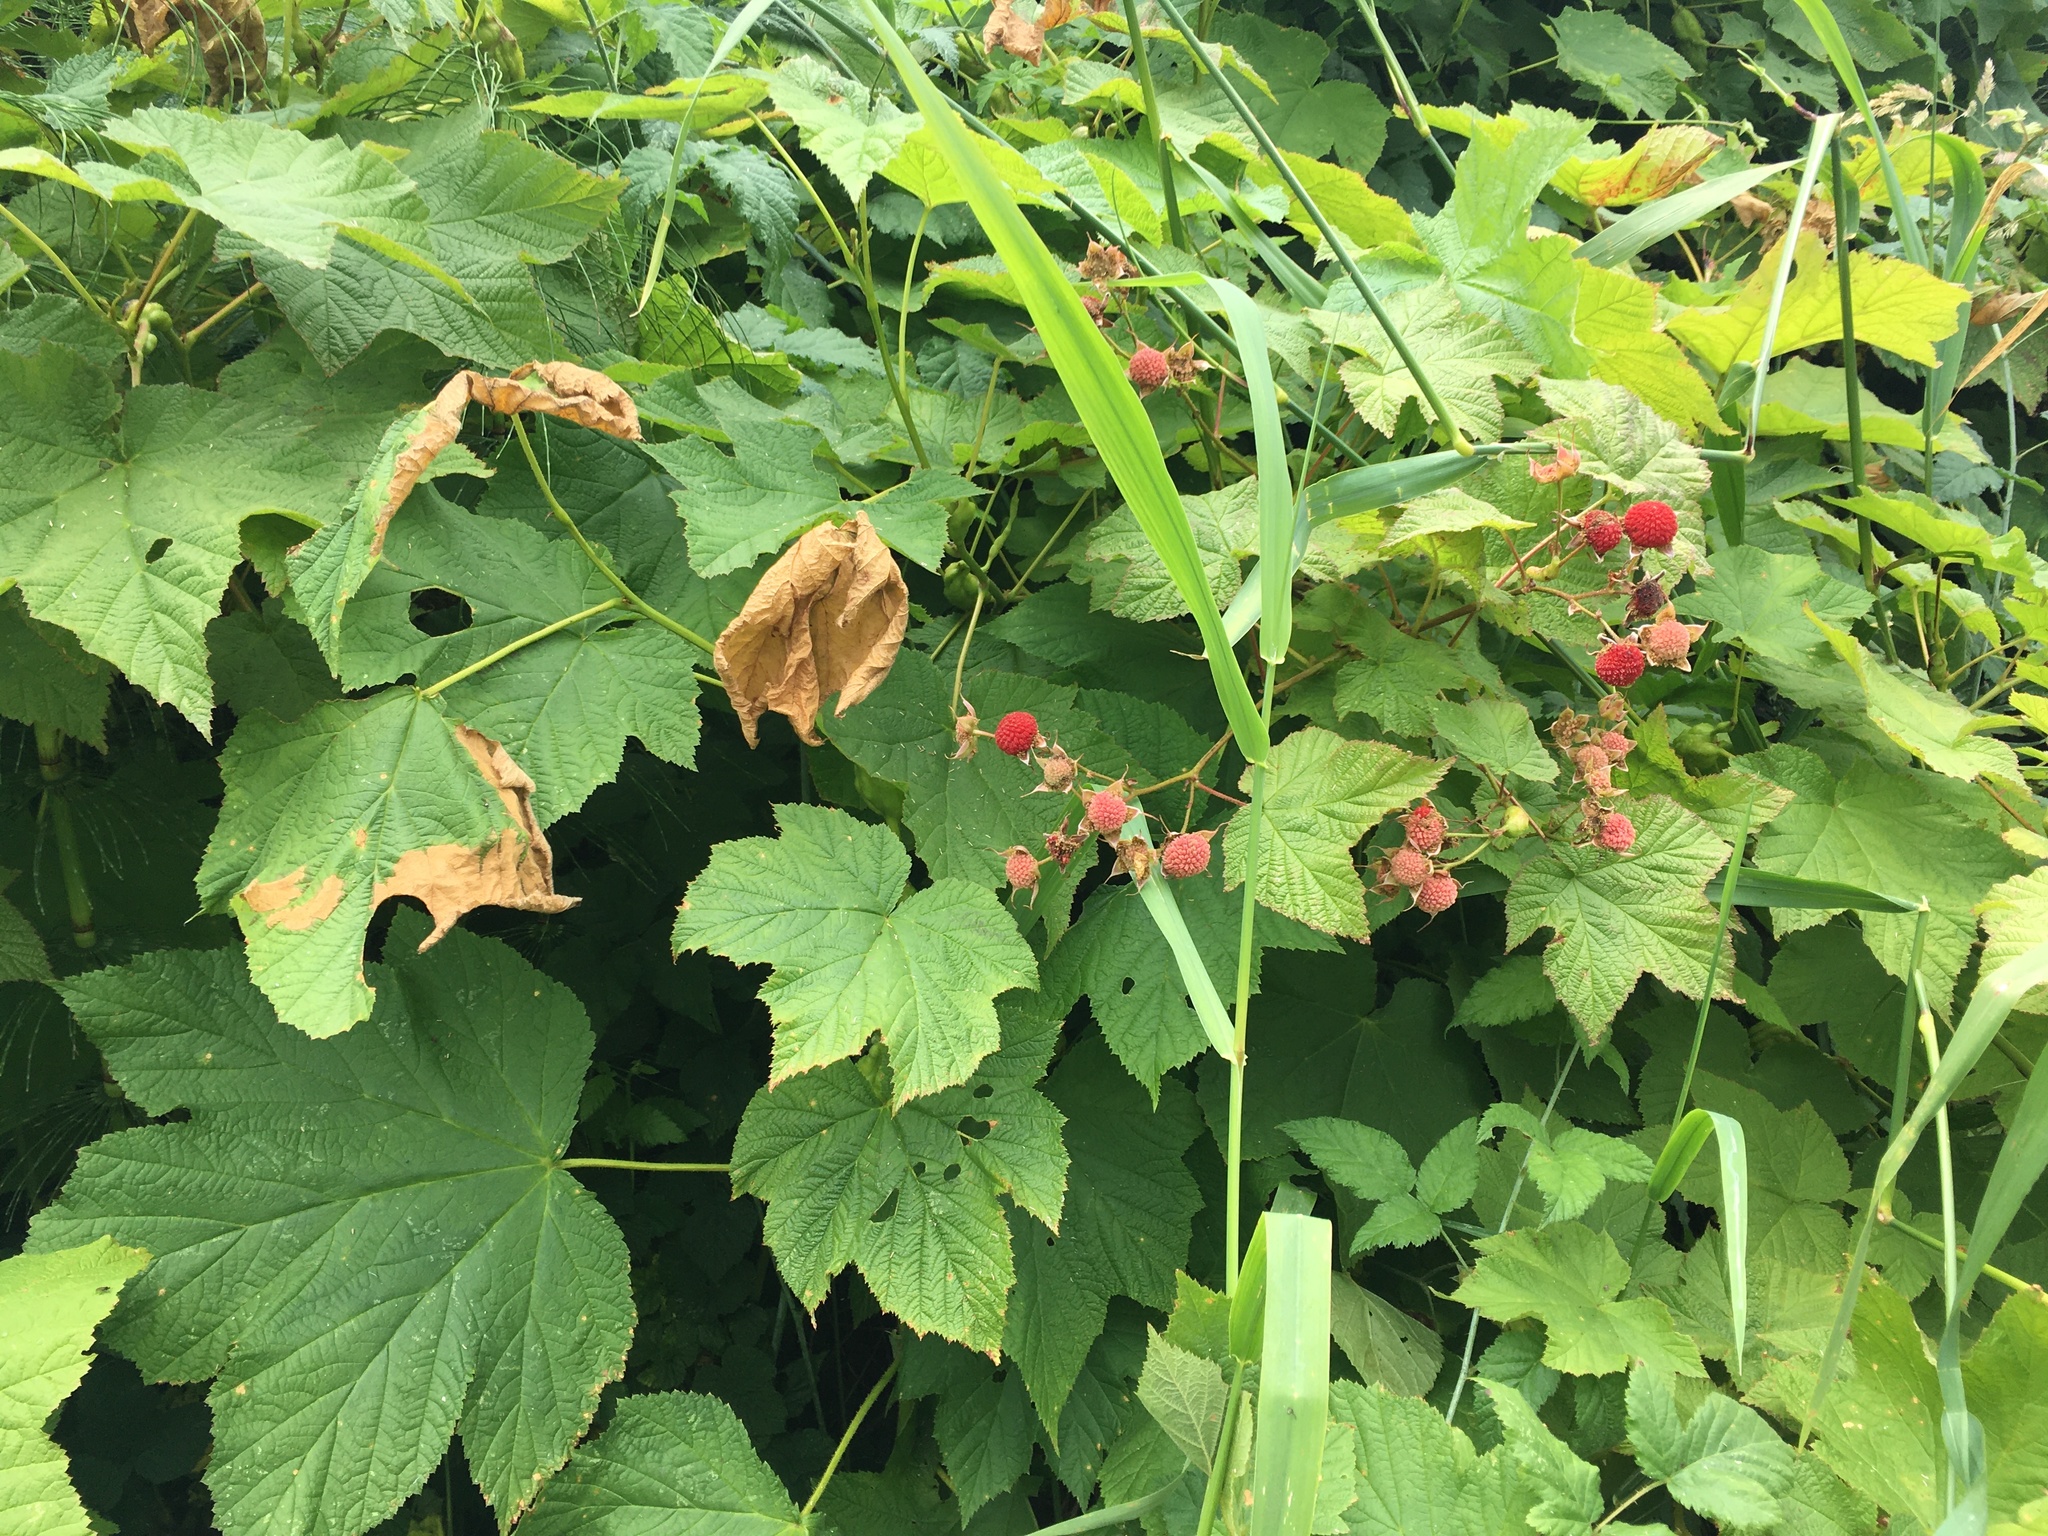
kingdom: Plantae
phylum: Tracheophyta
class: Magnoliopsida
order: Rosales
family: Rosaceae
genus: Rubus
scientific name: Rubus parviflorus
